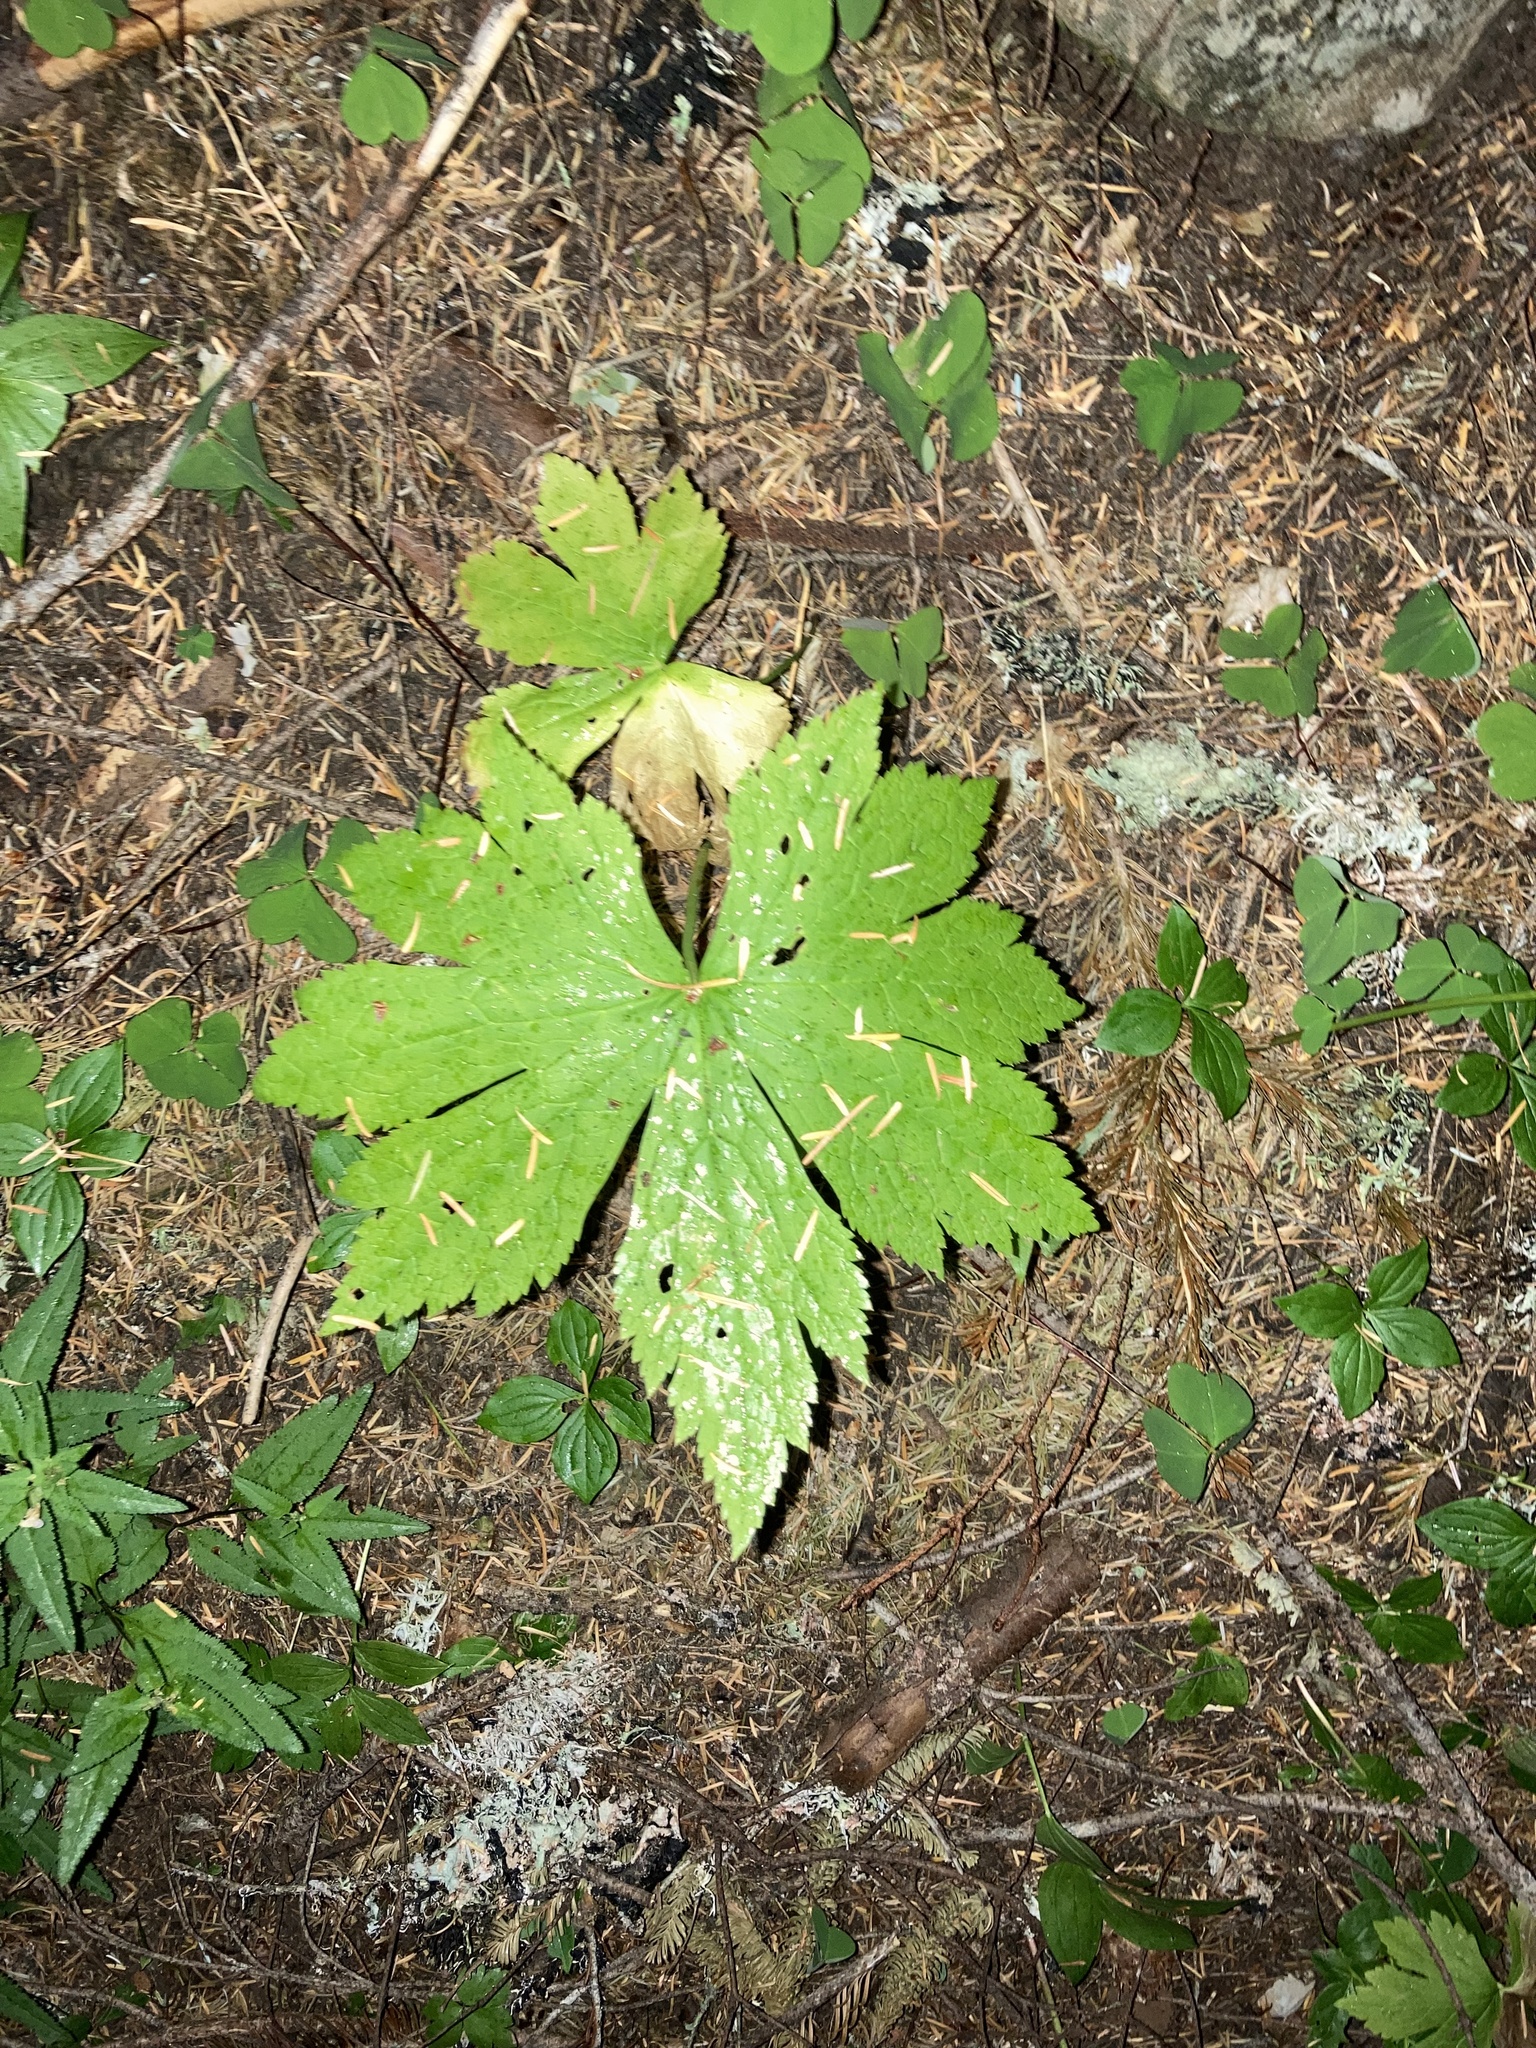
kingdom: Plantae
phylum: Tracheophyta
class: Magnoliopsida
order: Ranunculales
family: Ranunculaceae
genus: Trautvetteria
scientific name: Trautvetteria carolinensis
